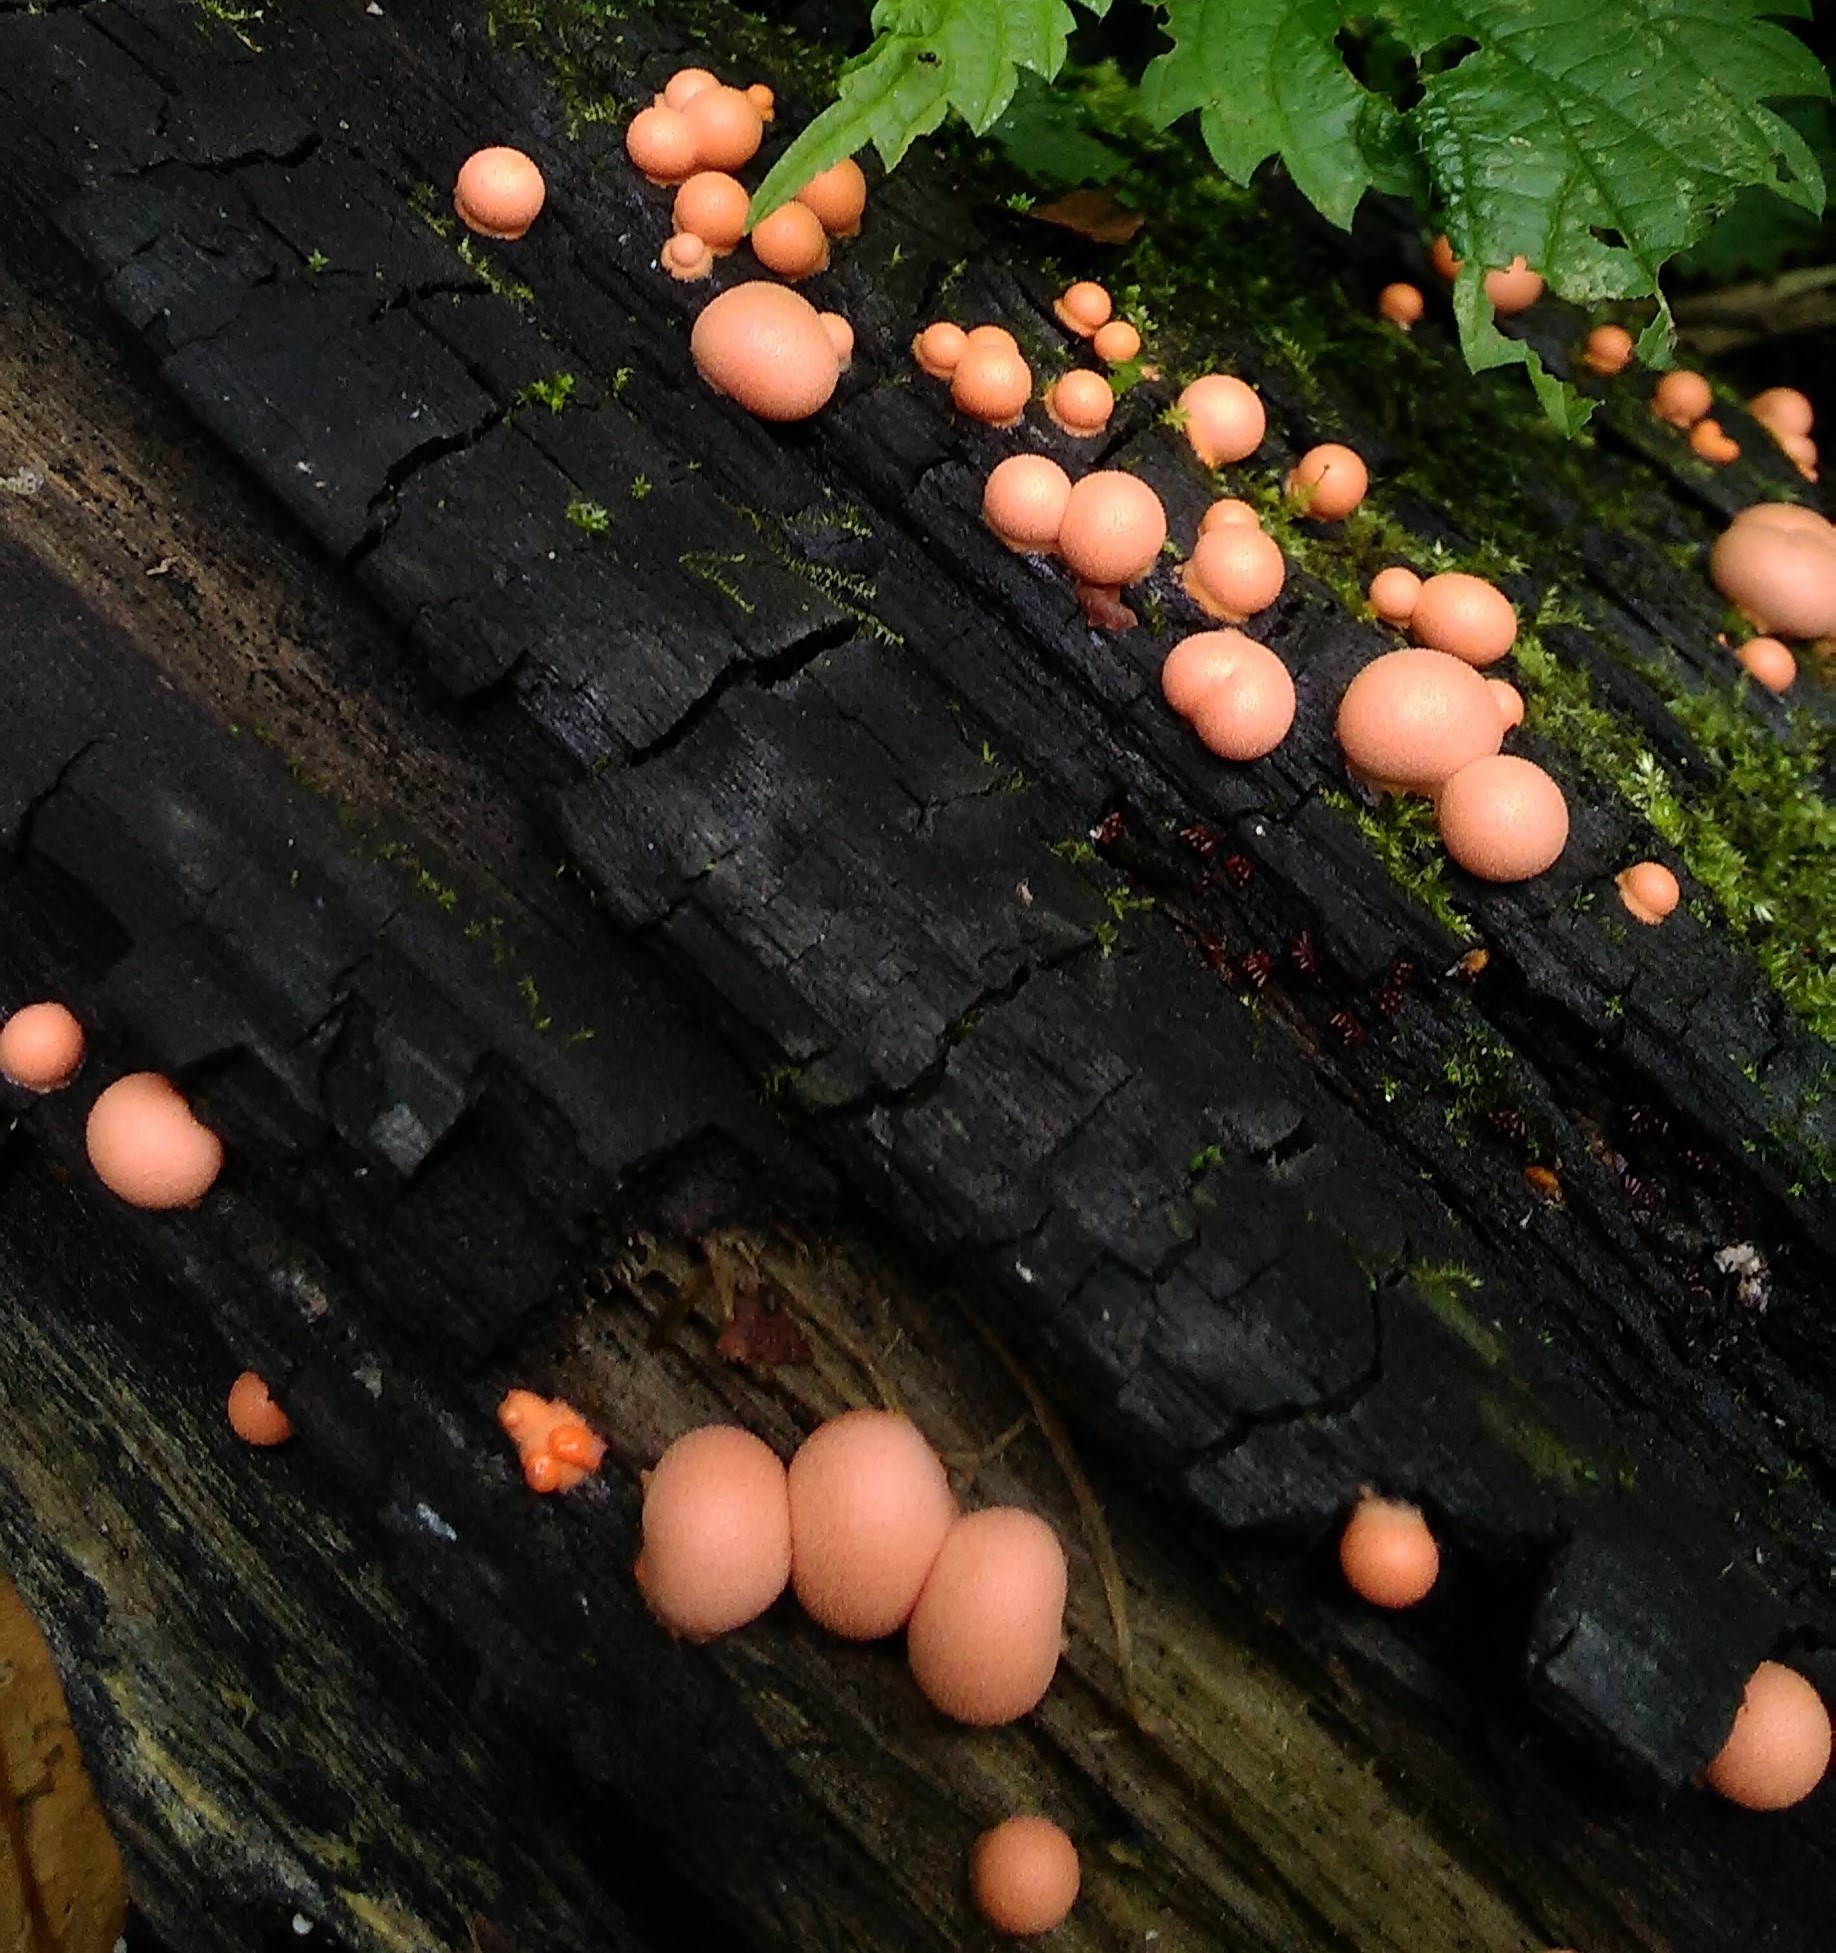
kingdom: Protozoa
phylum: Mycetozoa
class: Myxomycetes
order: Cribrariales
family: Tubiferaceae
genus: Lycogala
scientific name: Lycogala epidendrum
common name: Wolf's milk
